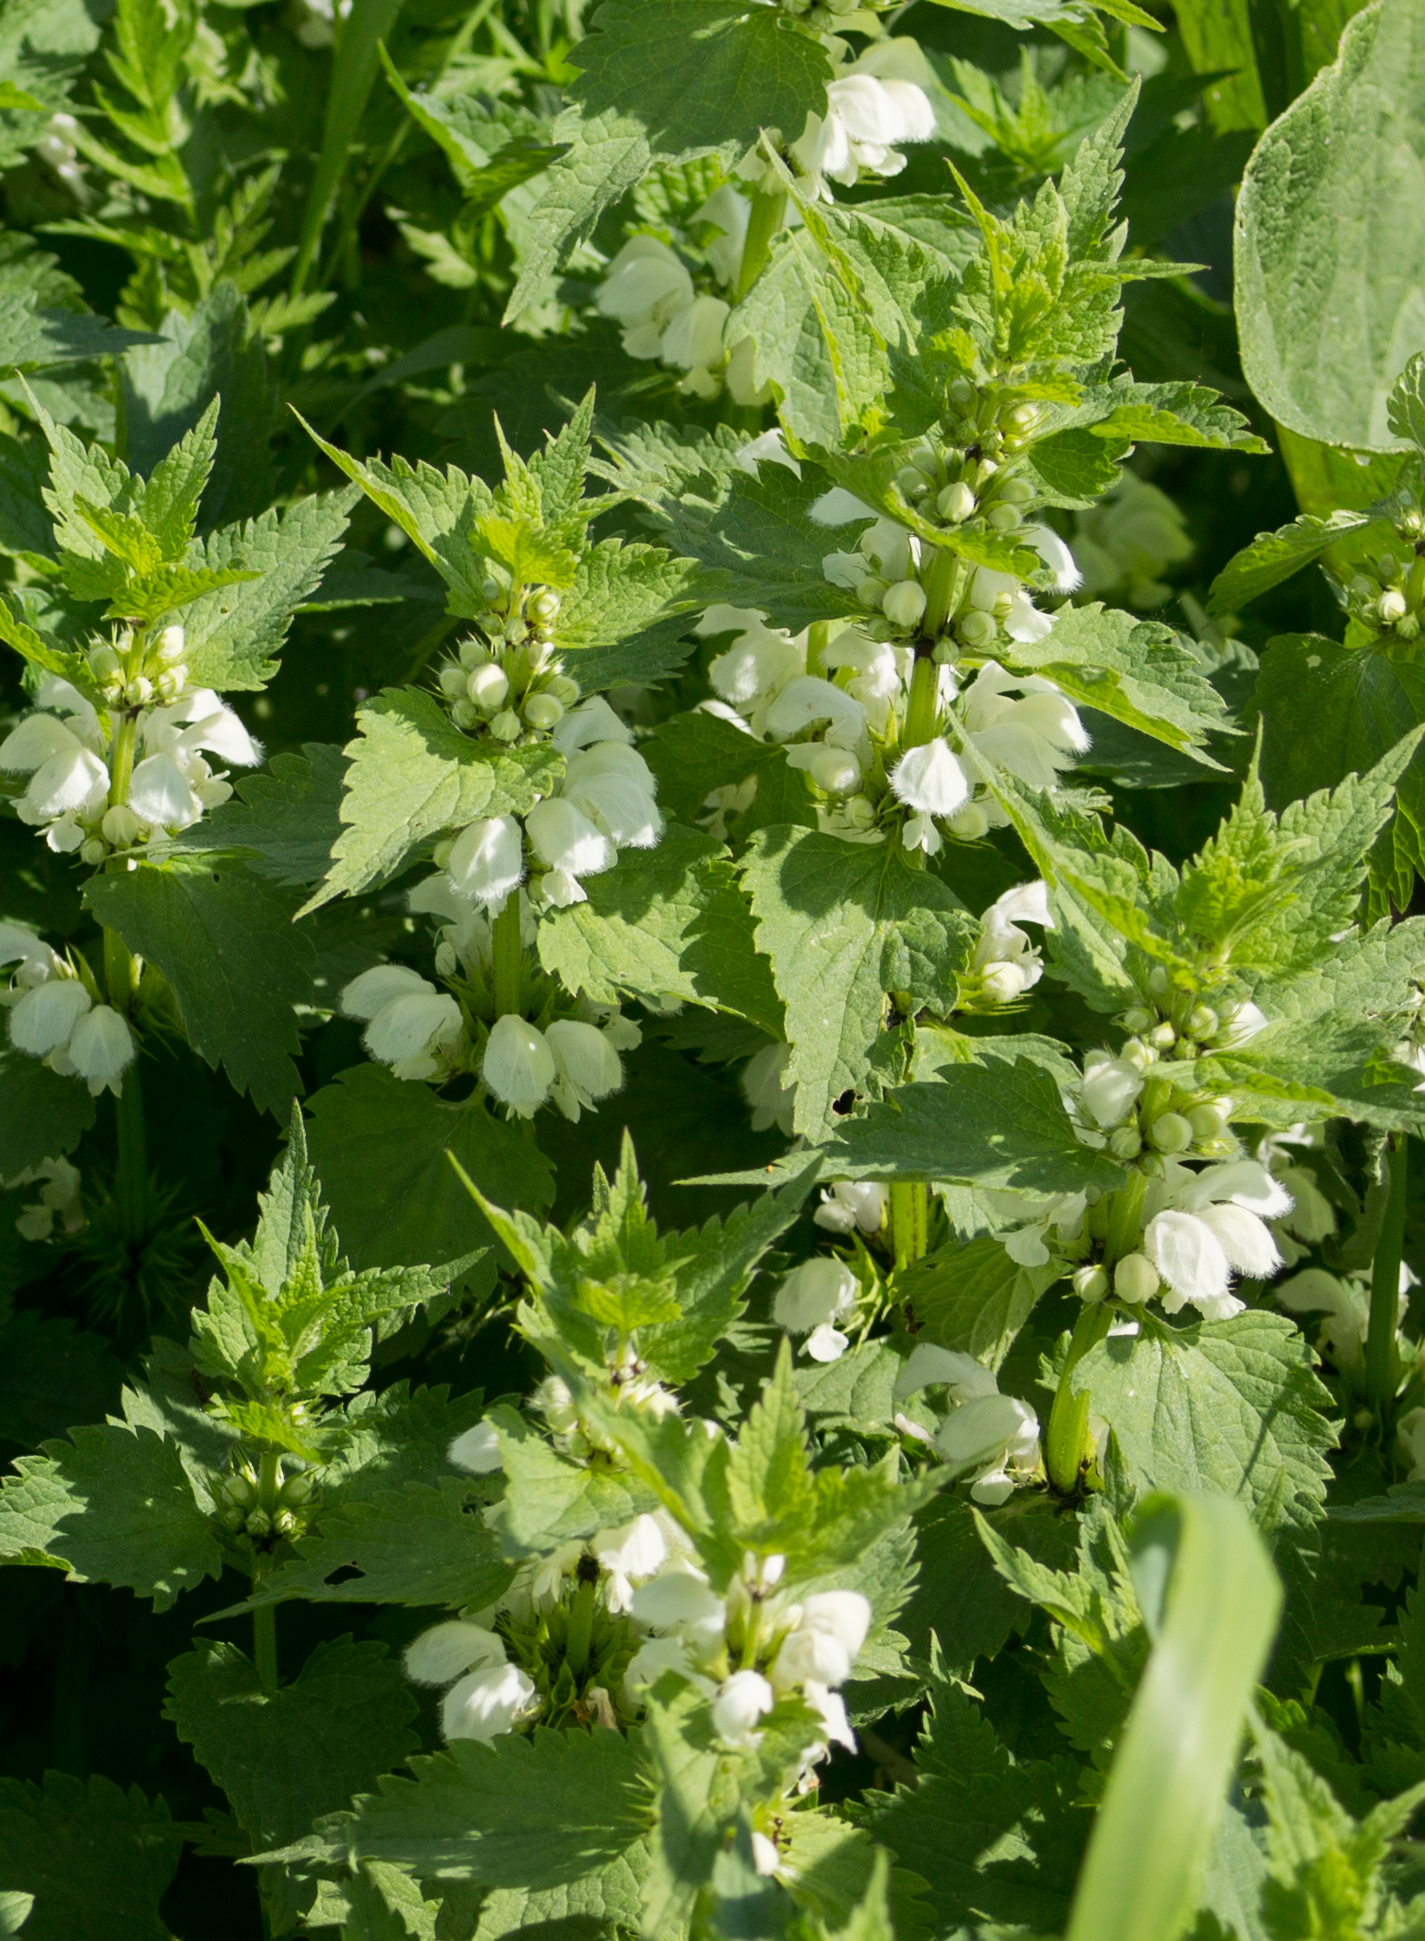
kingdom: Plantae
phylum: Tracheophyta
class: Magnoliopsida
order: Lamiales
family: Lamiaceae
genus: Lamium
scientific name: Lamium album
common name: White dead-nettle
